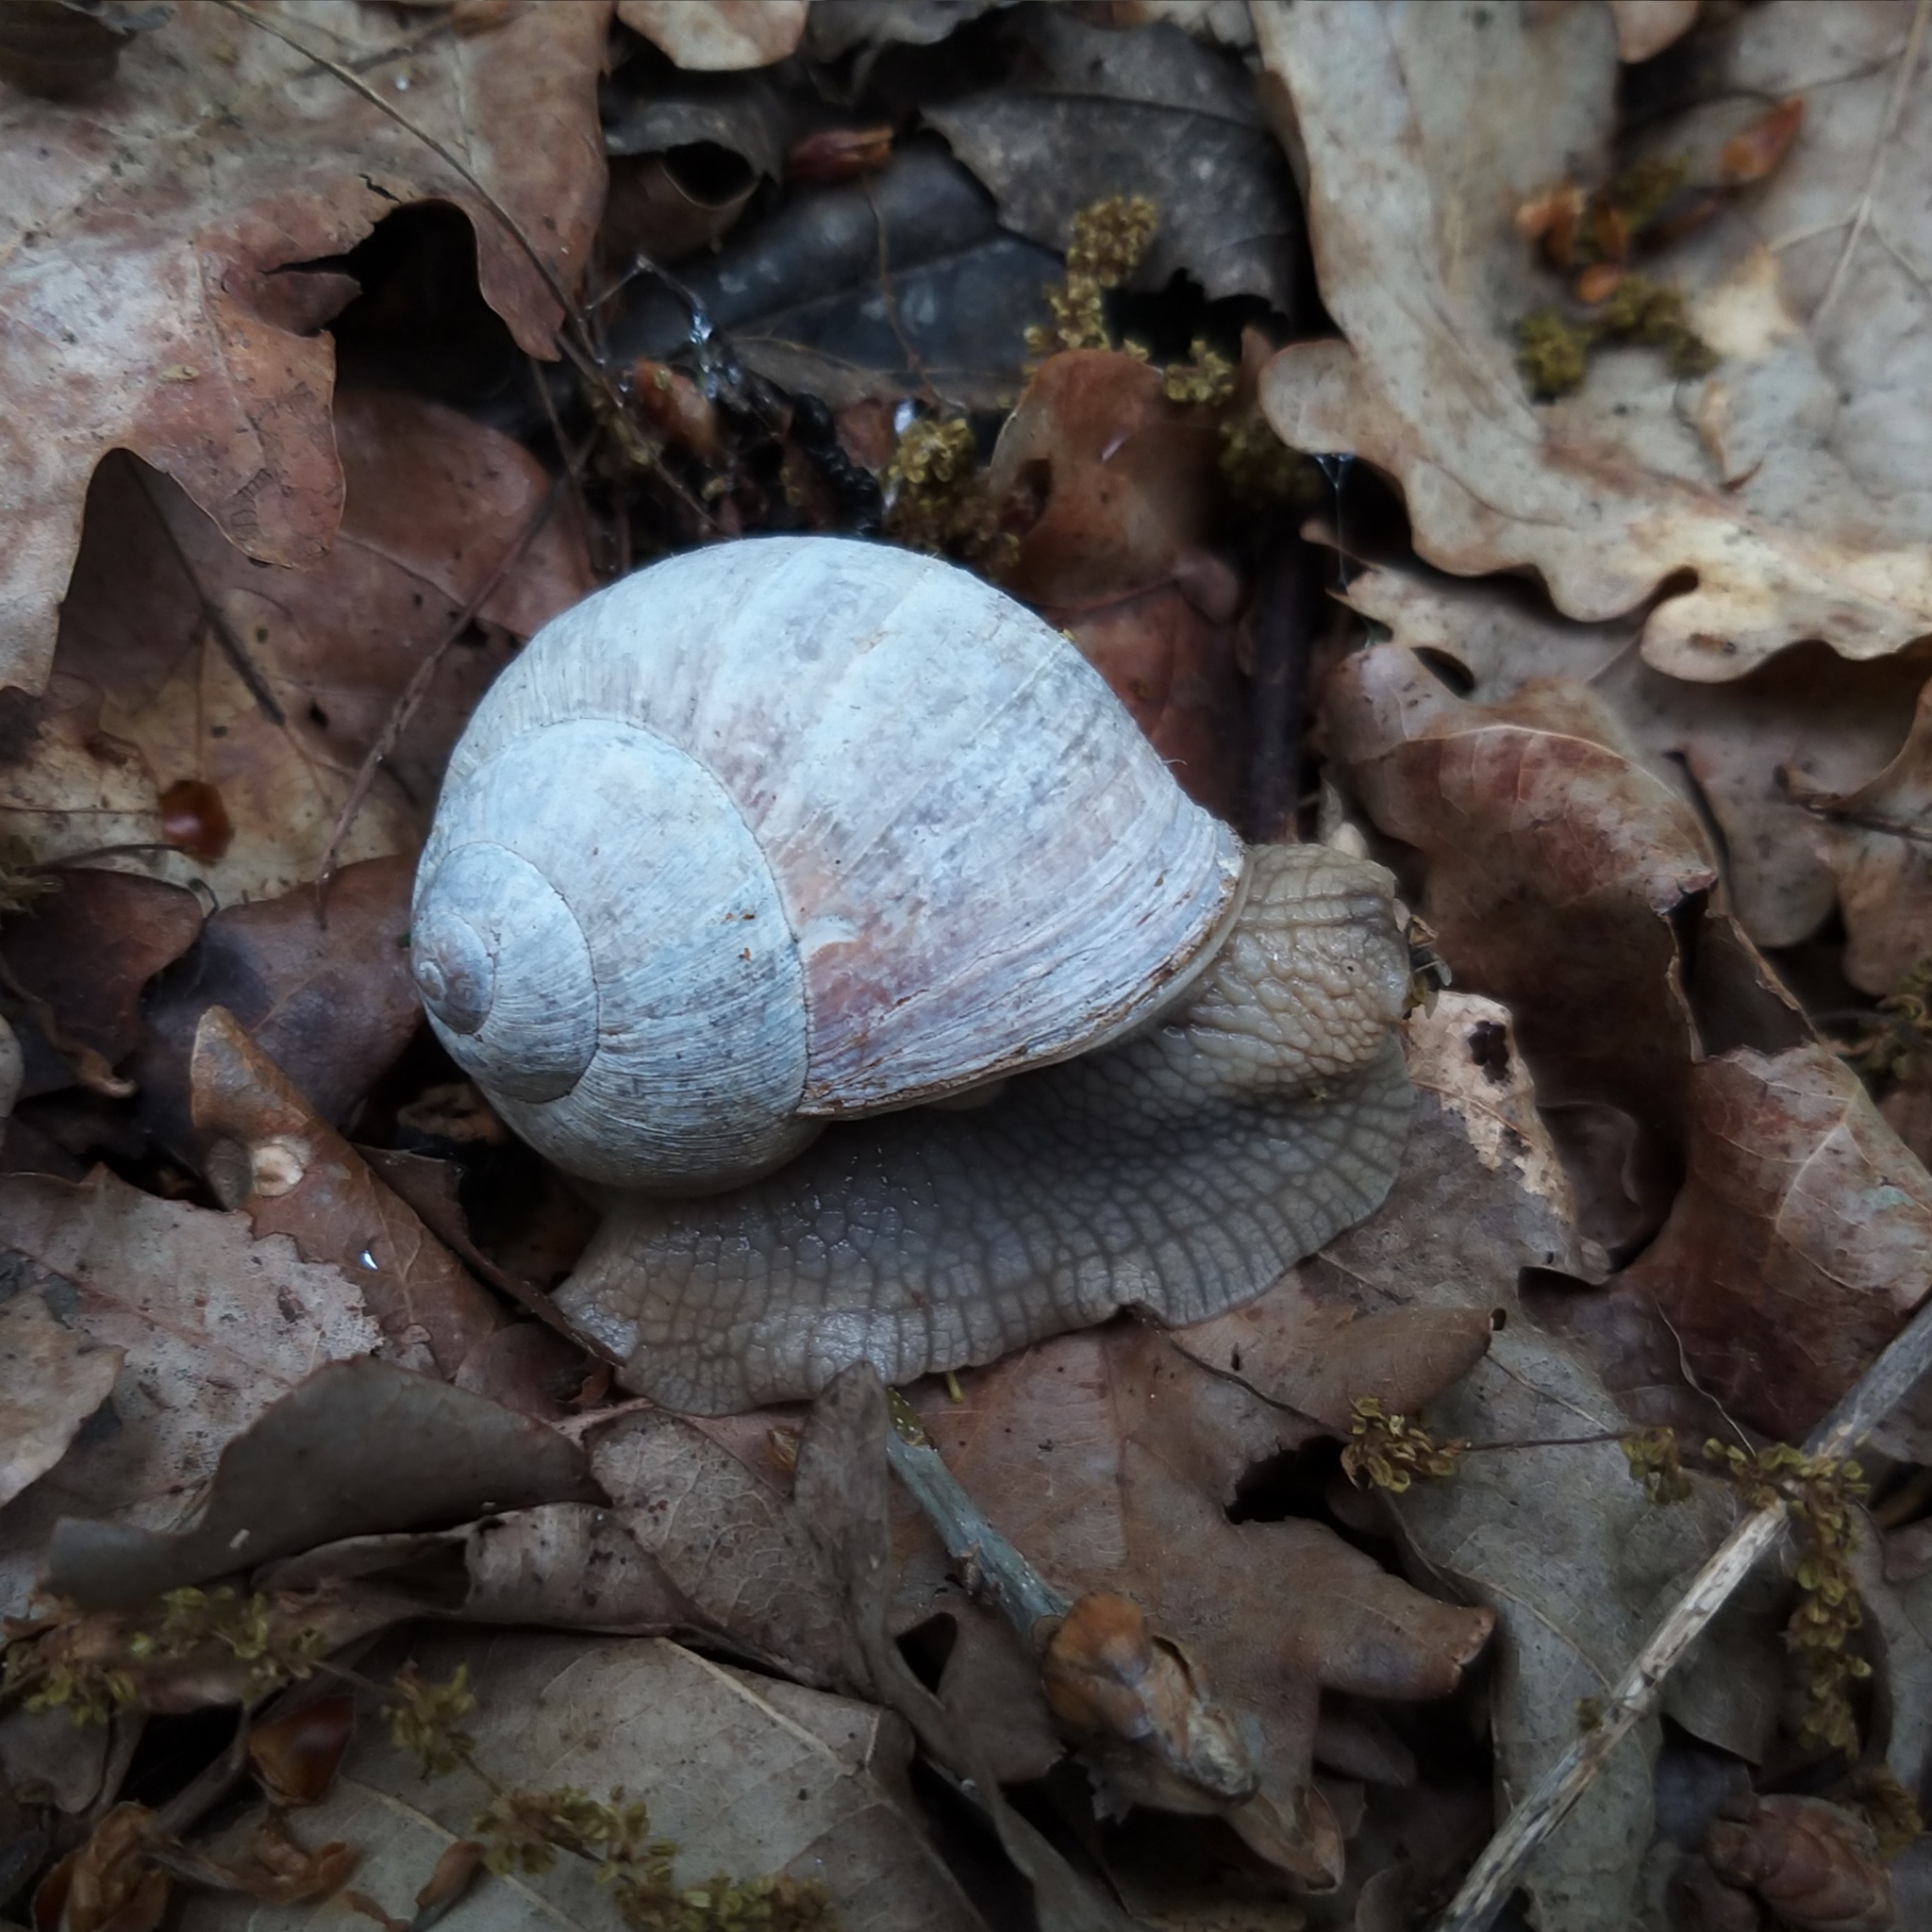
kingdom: Animalia
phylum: Mollusca
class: Gastropoda
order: Stylommatophora
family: Helicidae
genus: Helix
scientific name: Helix pomatia
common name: Roman snail
